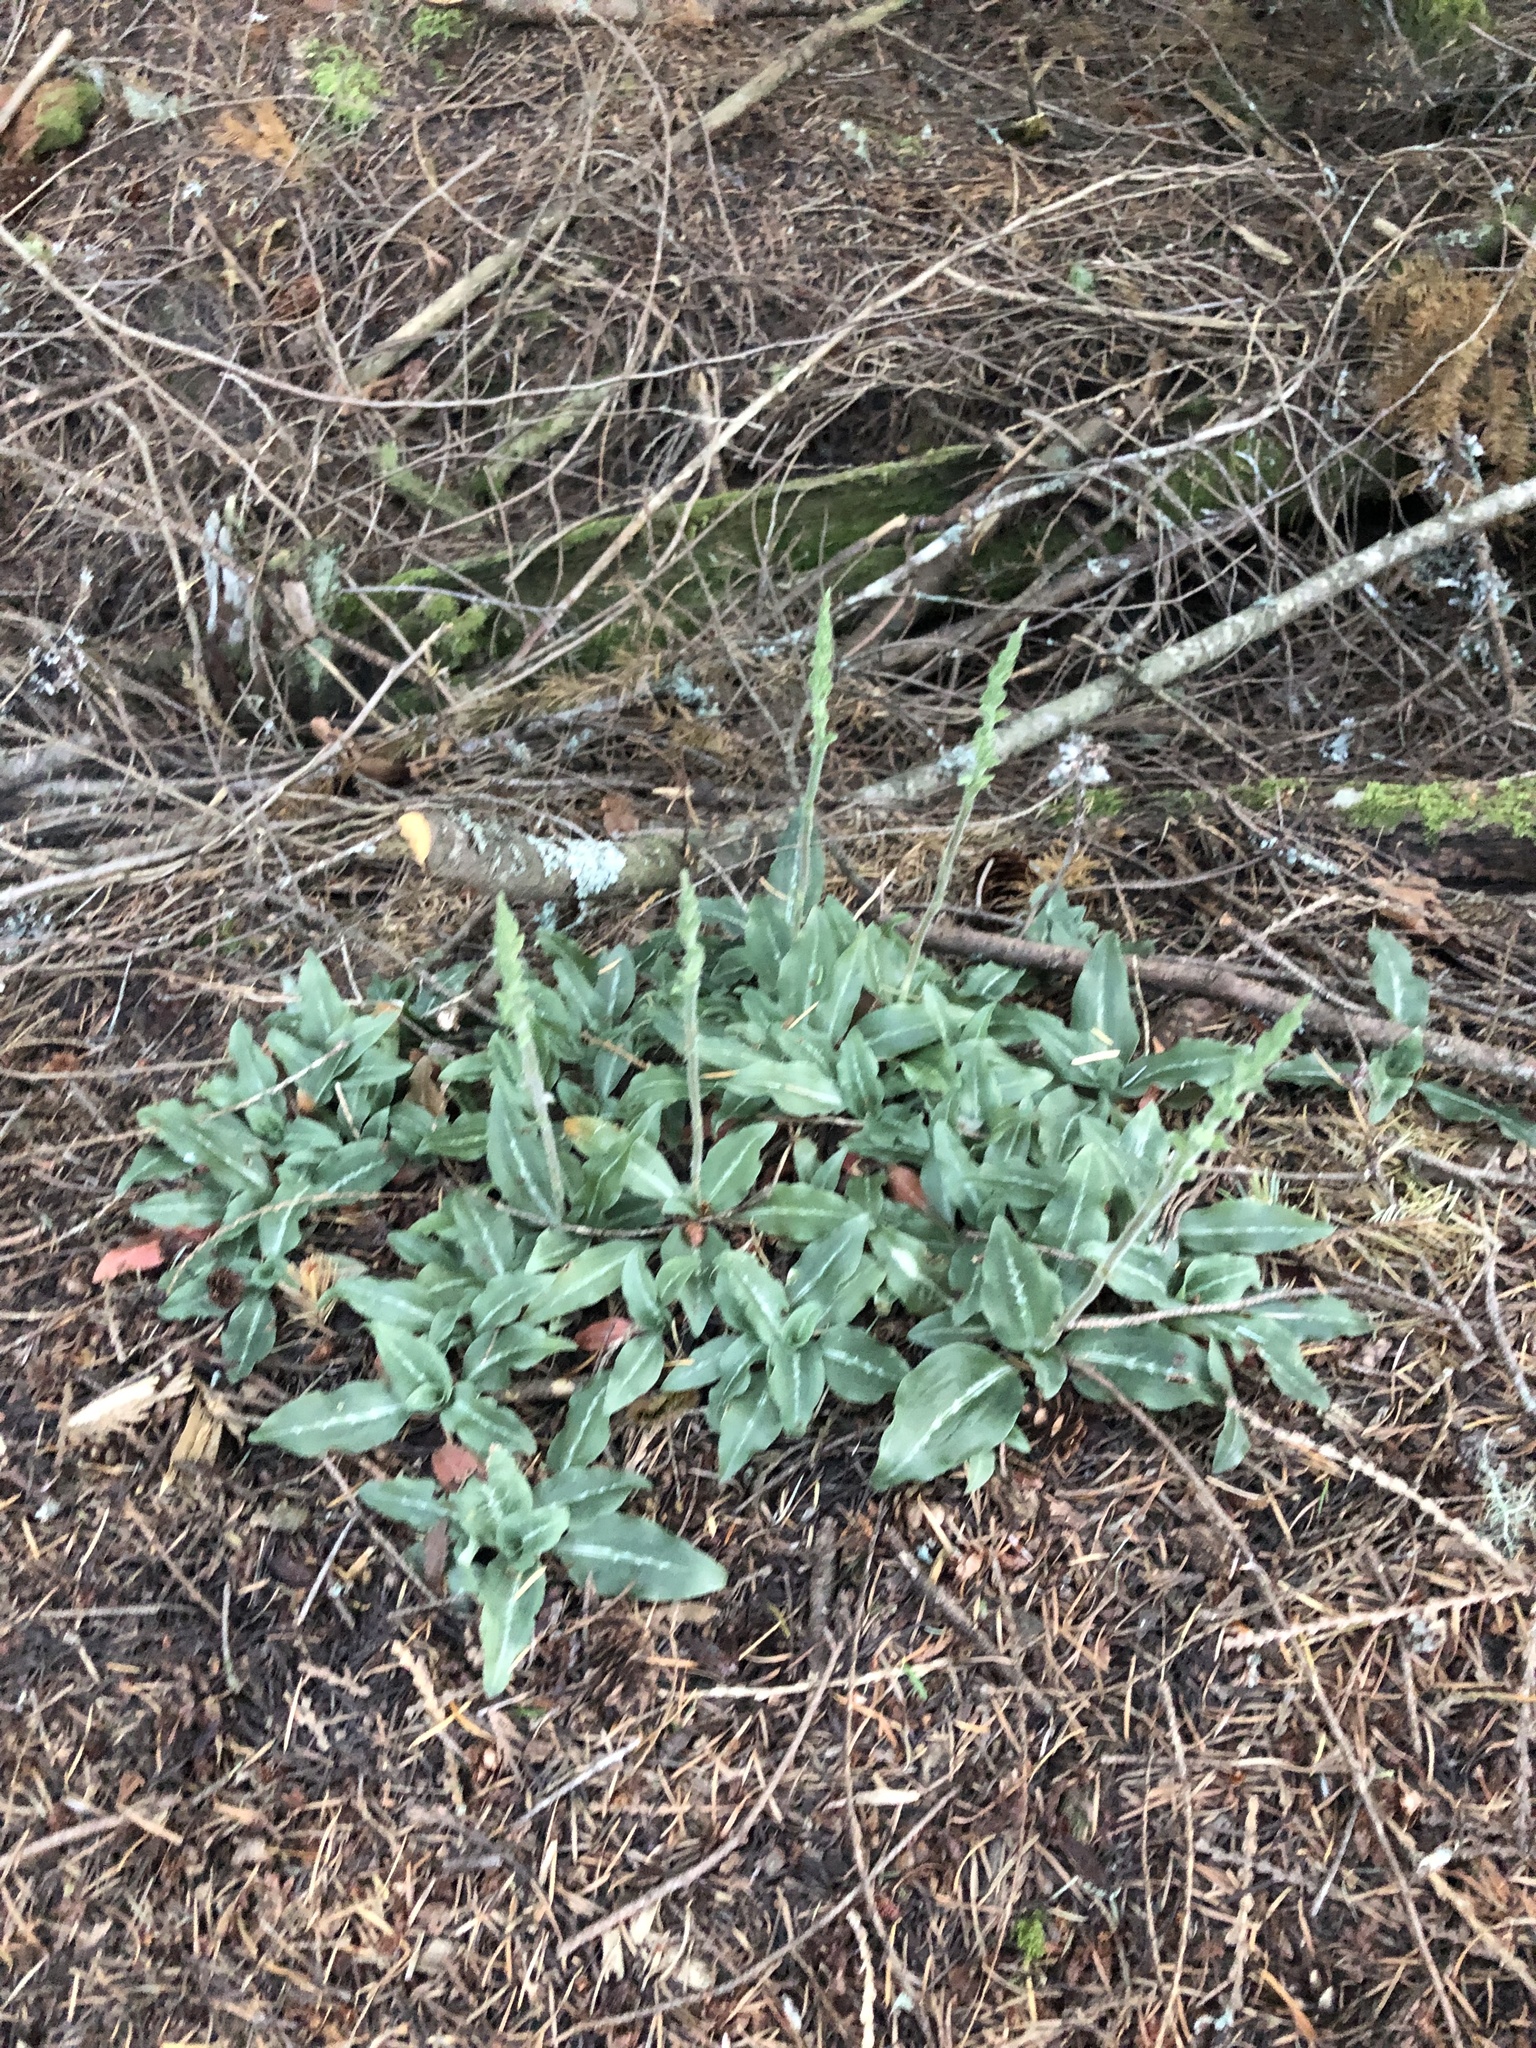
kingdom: Plantae
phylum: Tracheophyta
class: Liliopsida
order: Asparagales
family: Orchidaceae
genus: Goodyera
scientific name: Goodyera oblongifolia
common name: Giant rattlesnake-plantain
